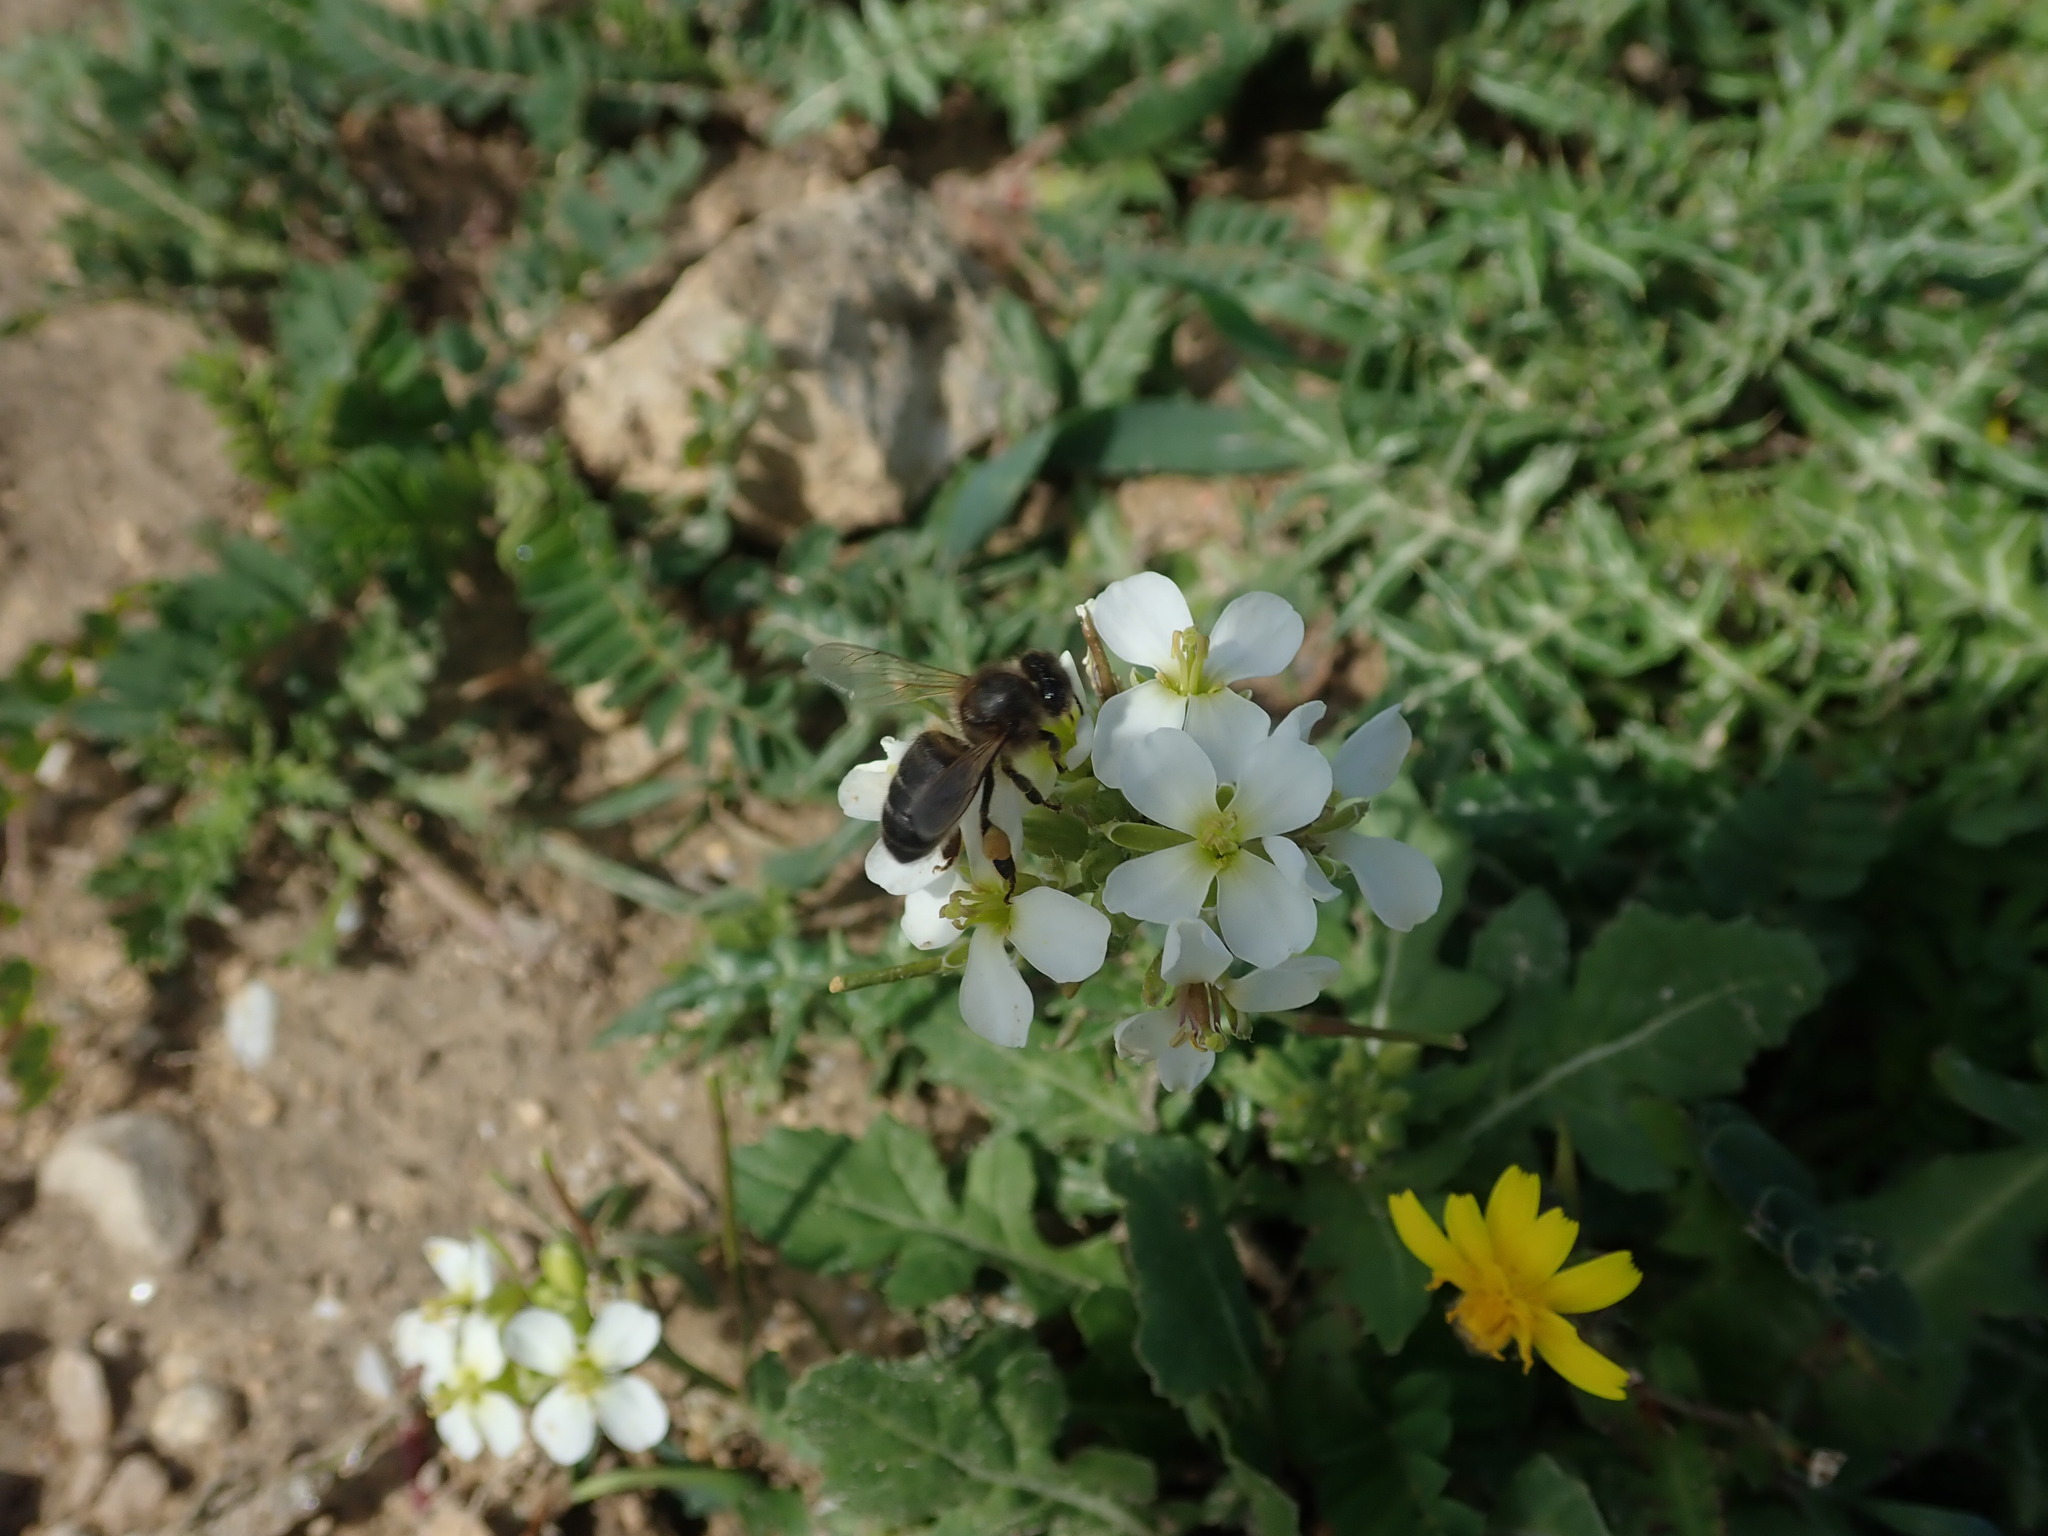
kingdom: Animalia
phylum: Arthropoda
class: Insecta
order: Hymenoptera
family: Apidae
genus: Apis
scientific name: Apis mellifera
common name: Honey bee
